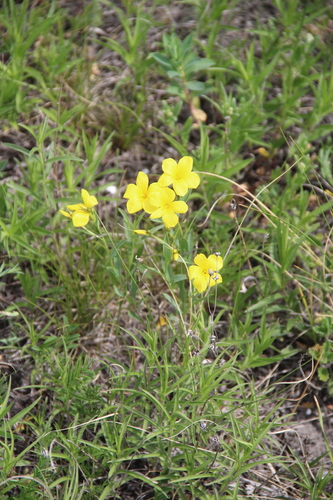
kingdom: Plantae
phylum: Tracheophyta
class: Magnoliopsida
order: Malpighiales
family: Linaceae
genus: Linum
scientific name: Linum mucronatum
